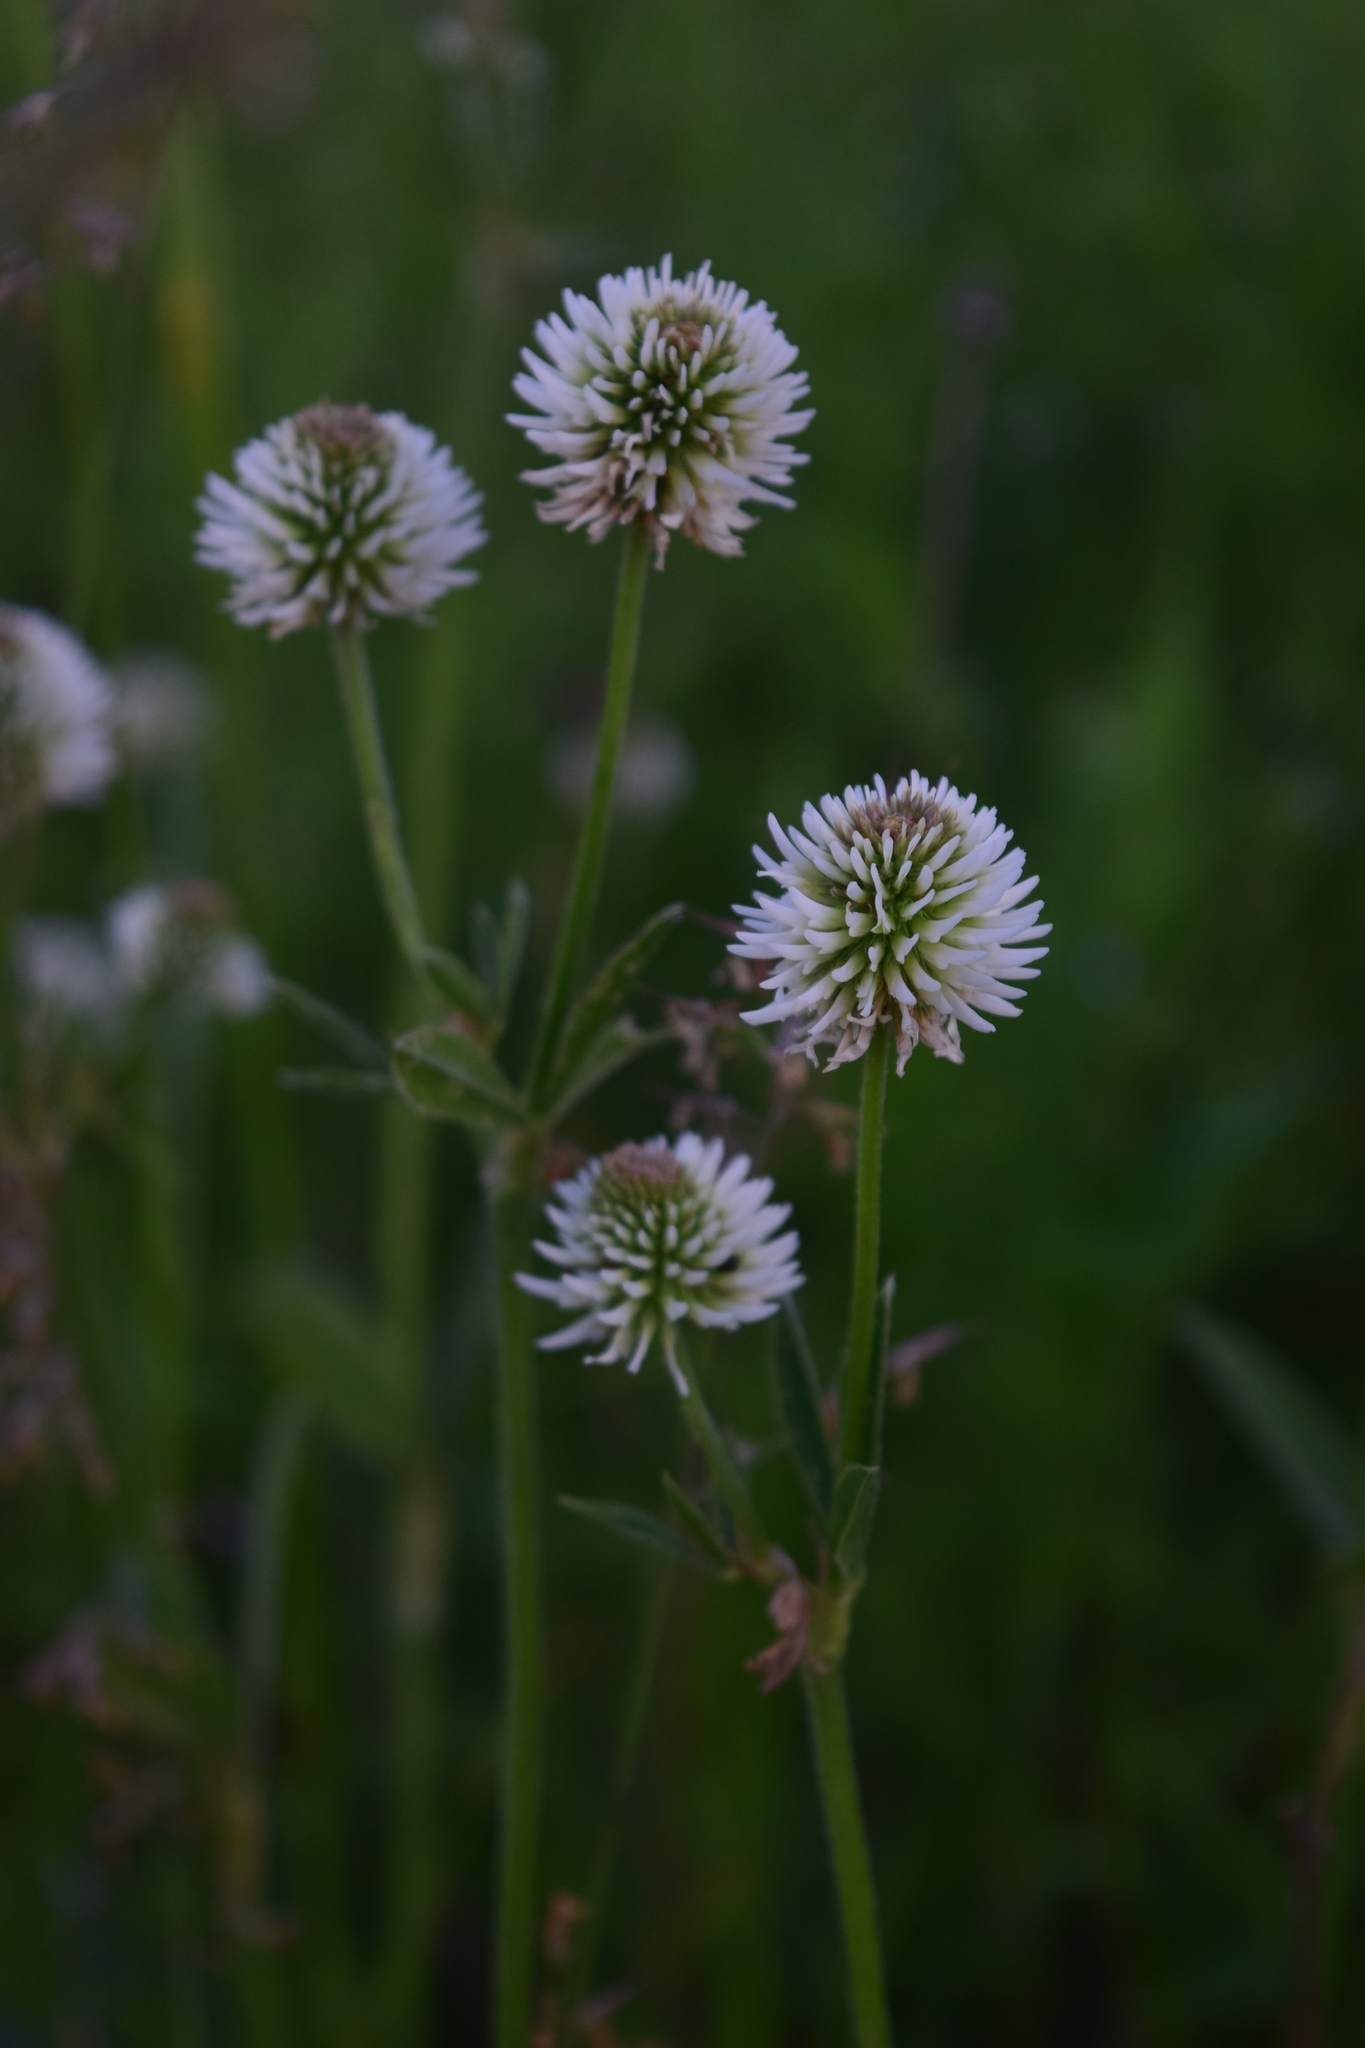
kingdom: Plantae
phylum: Tracheophyta
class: Magnoliopsida
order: Fabales
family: Fabaceae
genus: Trifolium
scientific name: Trifolium montanum
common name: Mountain clover
